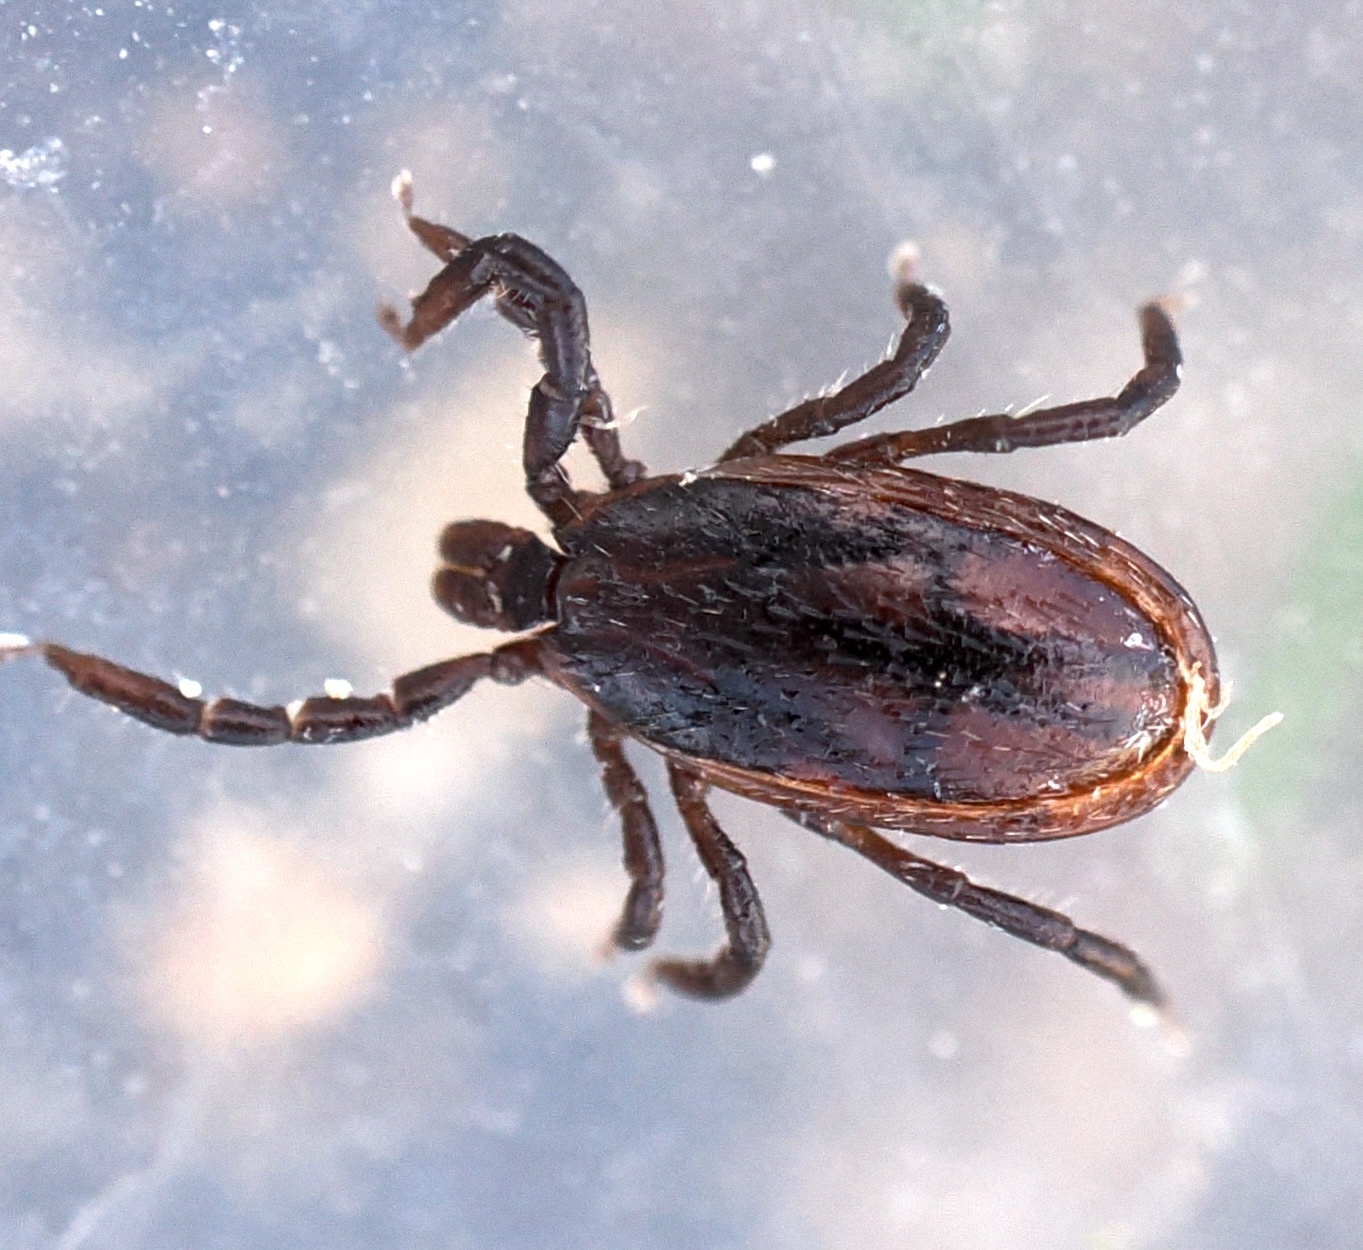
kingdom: Animalia
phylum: Arthropoda
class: Arachnida
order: Ixodida
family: Ixodidae
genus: Ixodes
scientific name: Ixodes pacificus
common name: California black-legged tick
